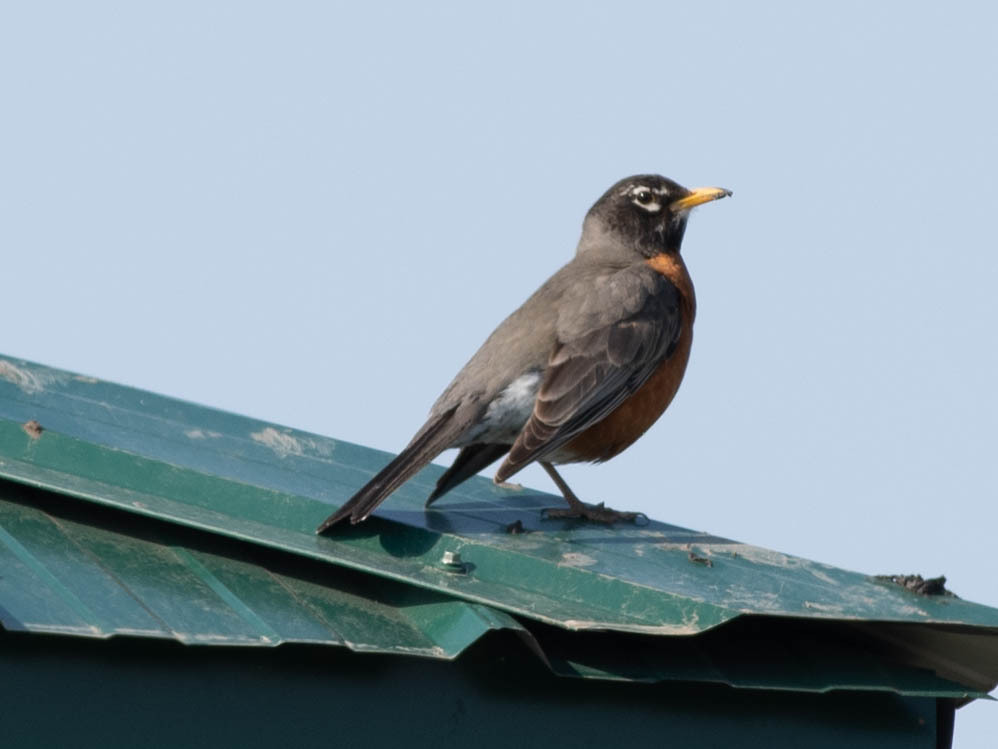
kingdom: Animalia
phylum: Chordata
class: Aves
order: Passeriformes
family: Turdidae
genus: Turdus
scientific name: Turdus migratorius
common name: American robin
